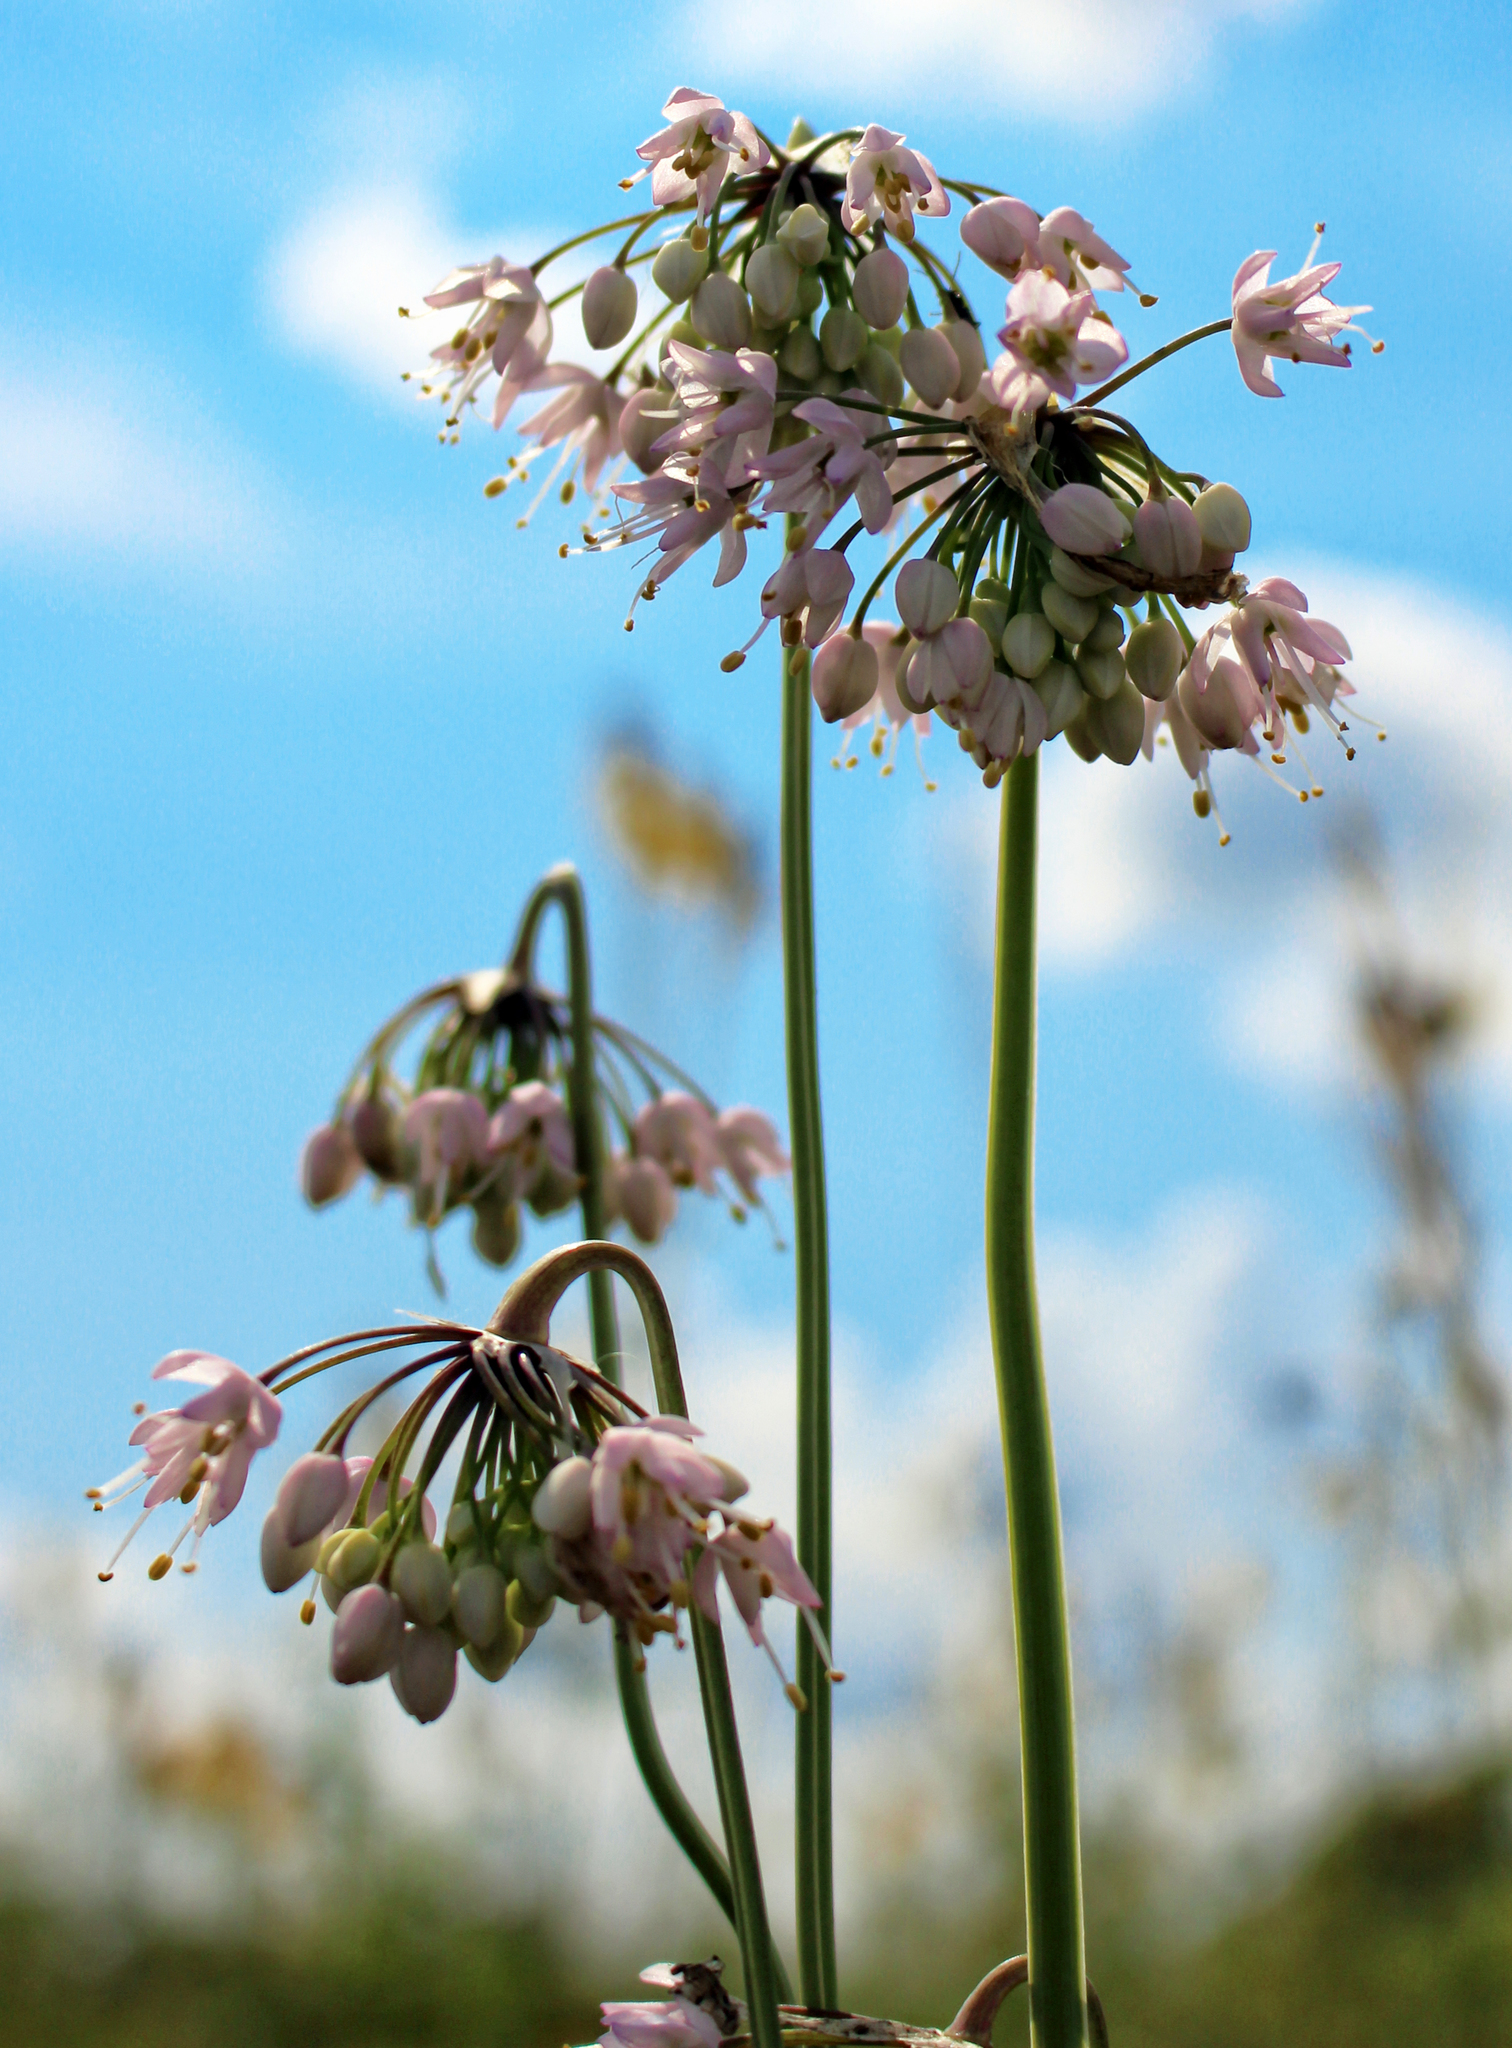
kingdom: Plantae
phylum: Tracheophyta
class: Liliopsida
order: Asparagales
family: Amaryllidaceae
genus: Allium
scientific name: Allium cernuum
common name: Nodding onion
